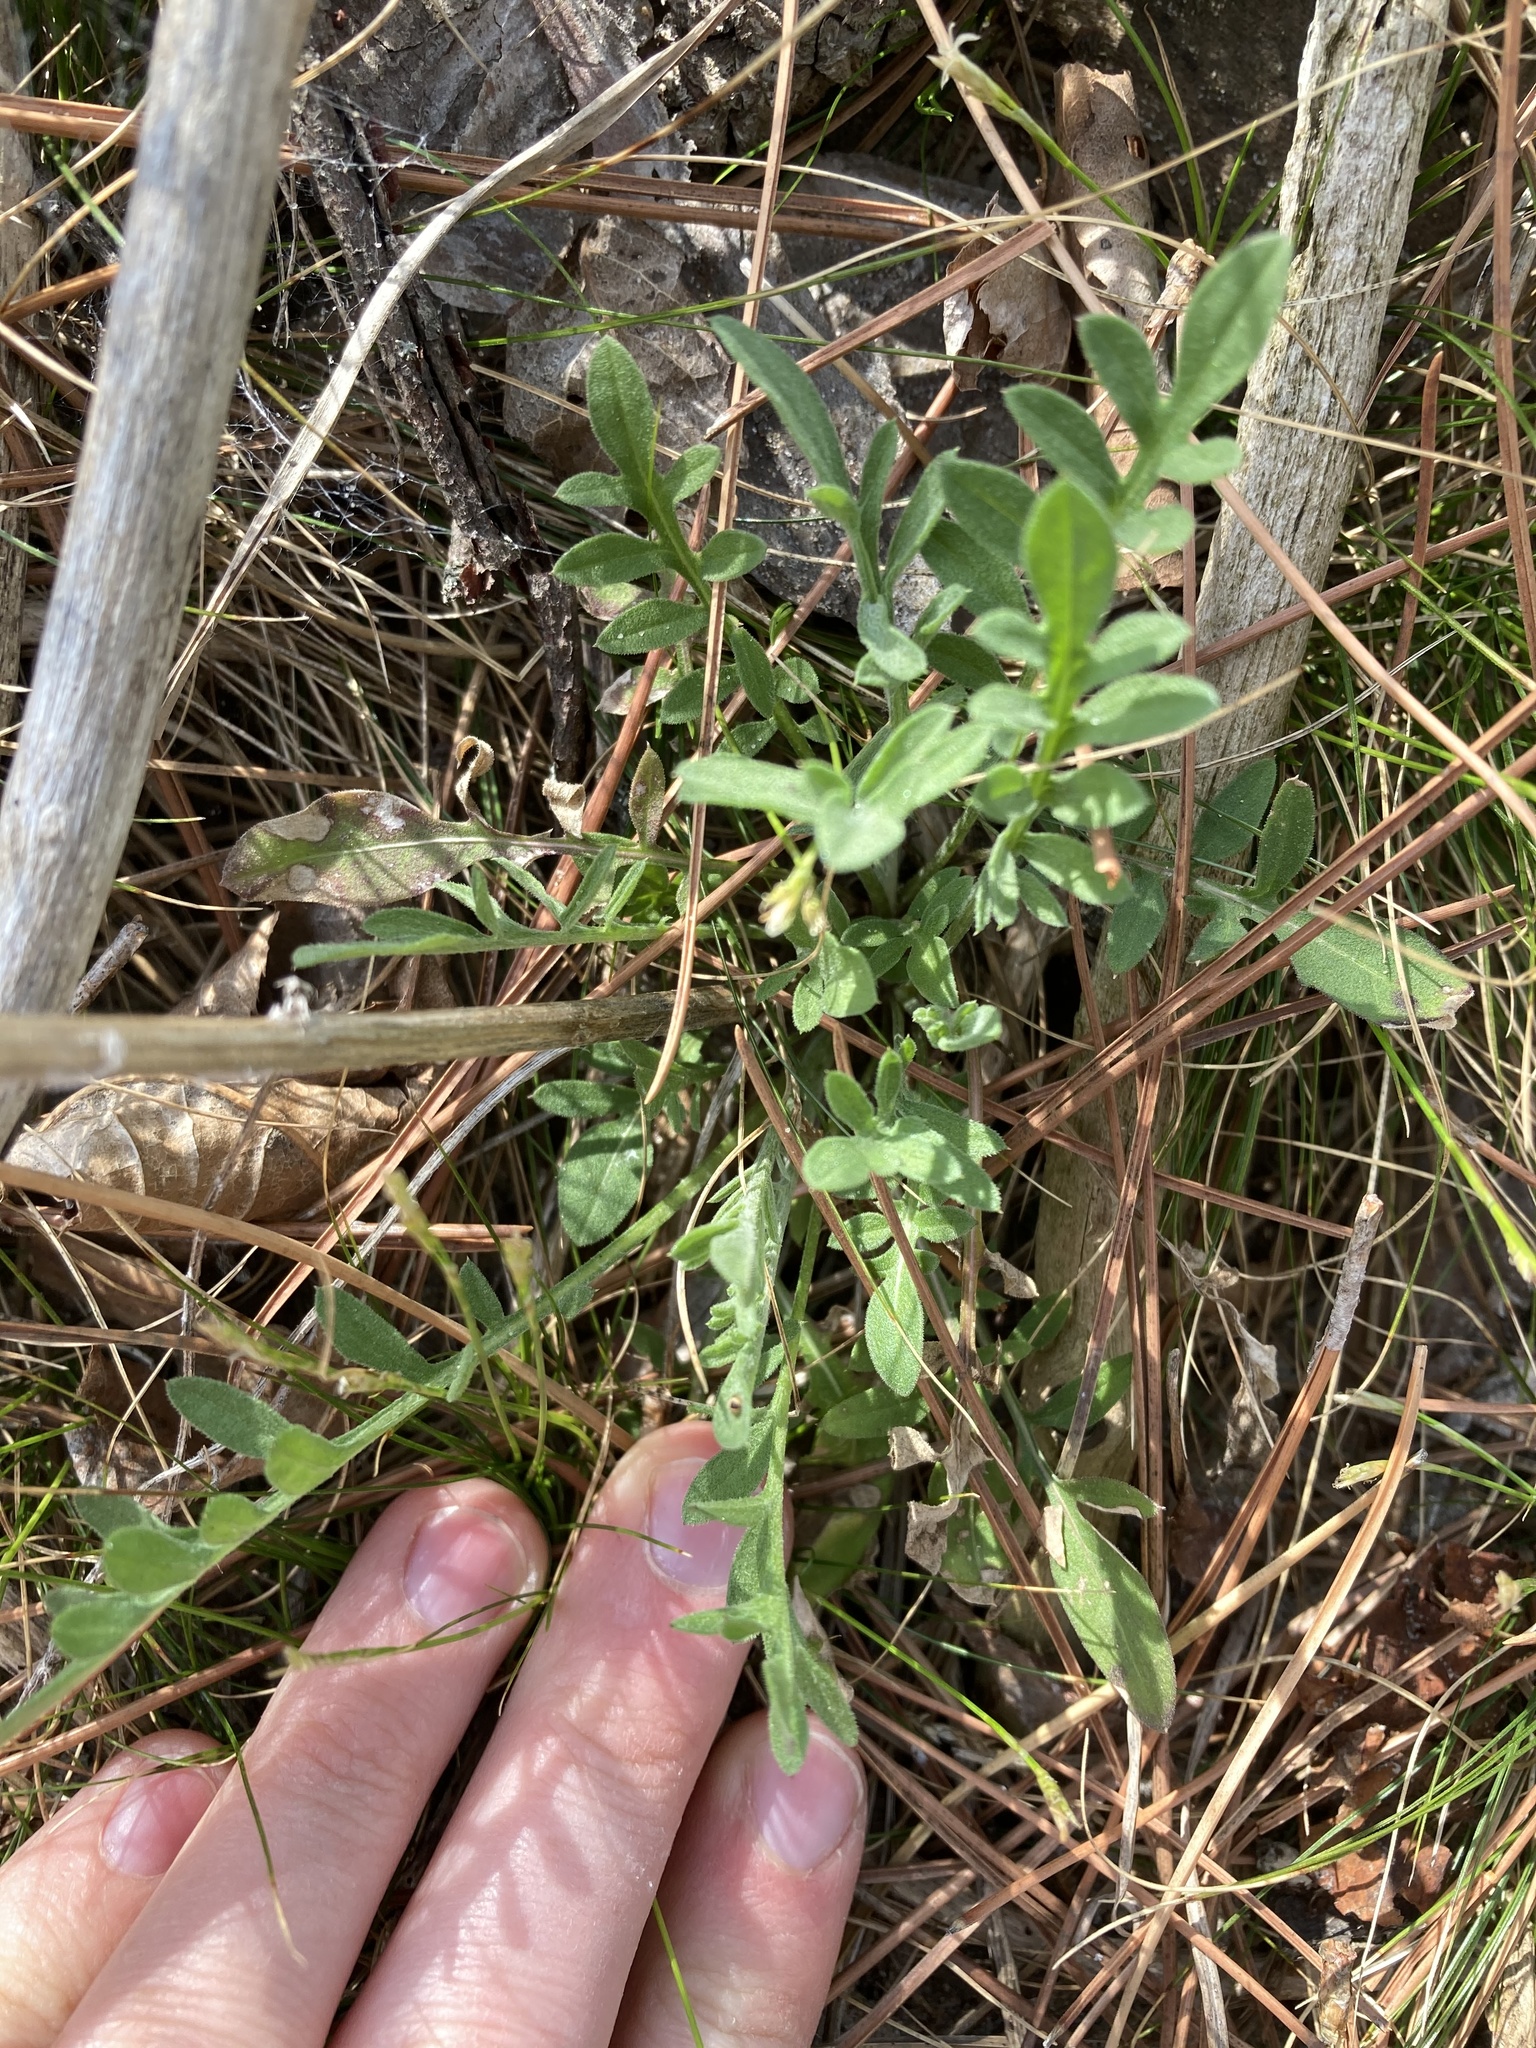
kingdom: Plantae
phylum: Tracheophyta
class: Magnoliopsida
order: Asterales
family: Asteraceae
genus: Centaurea
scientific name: Centaurea stoebe
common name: Spotted knapweed
